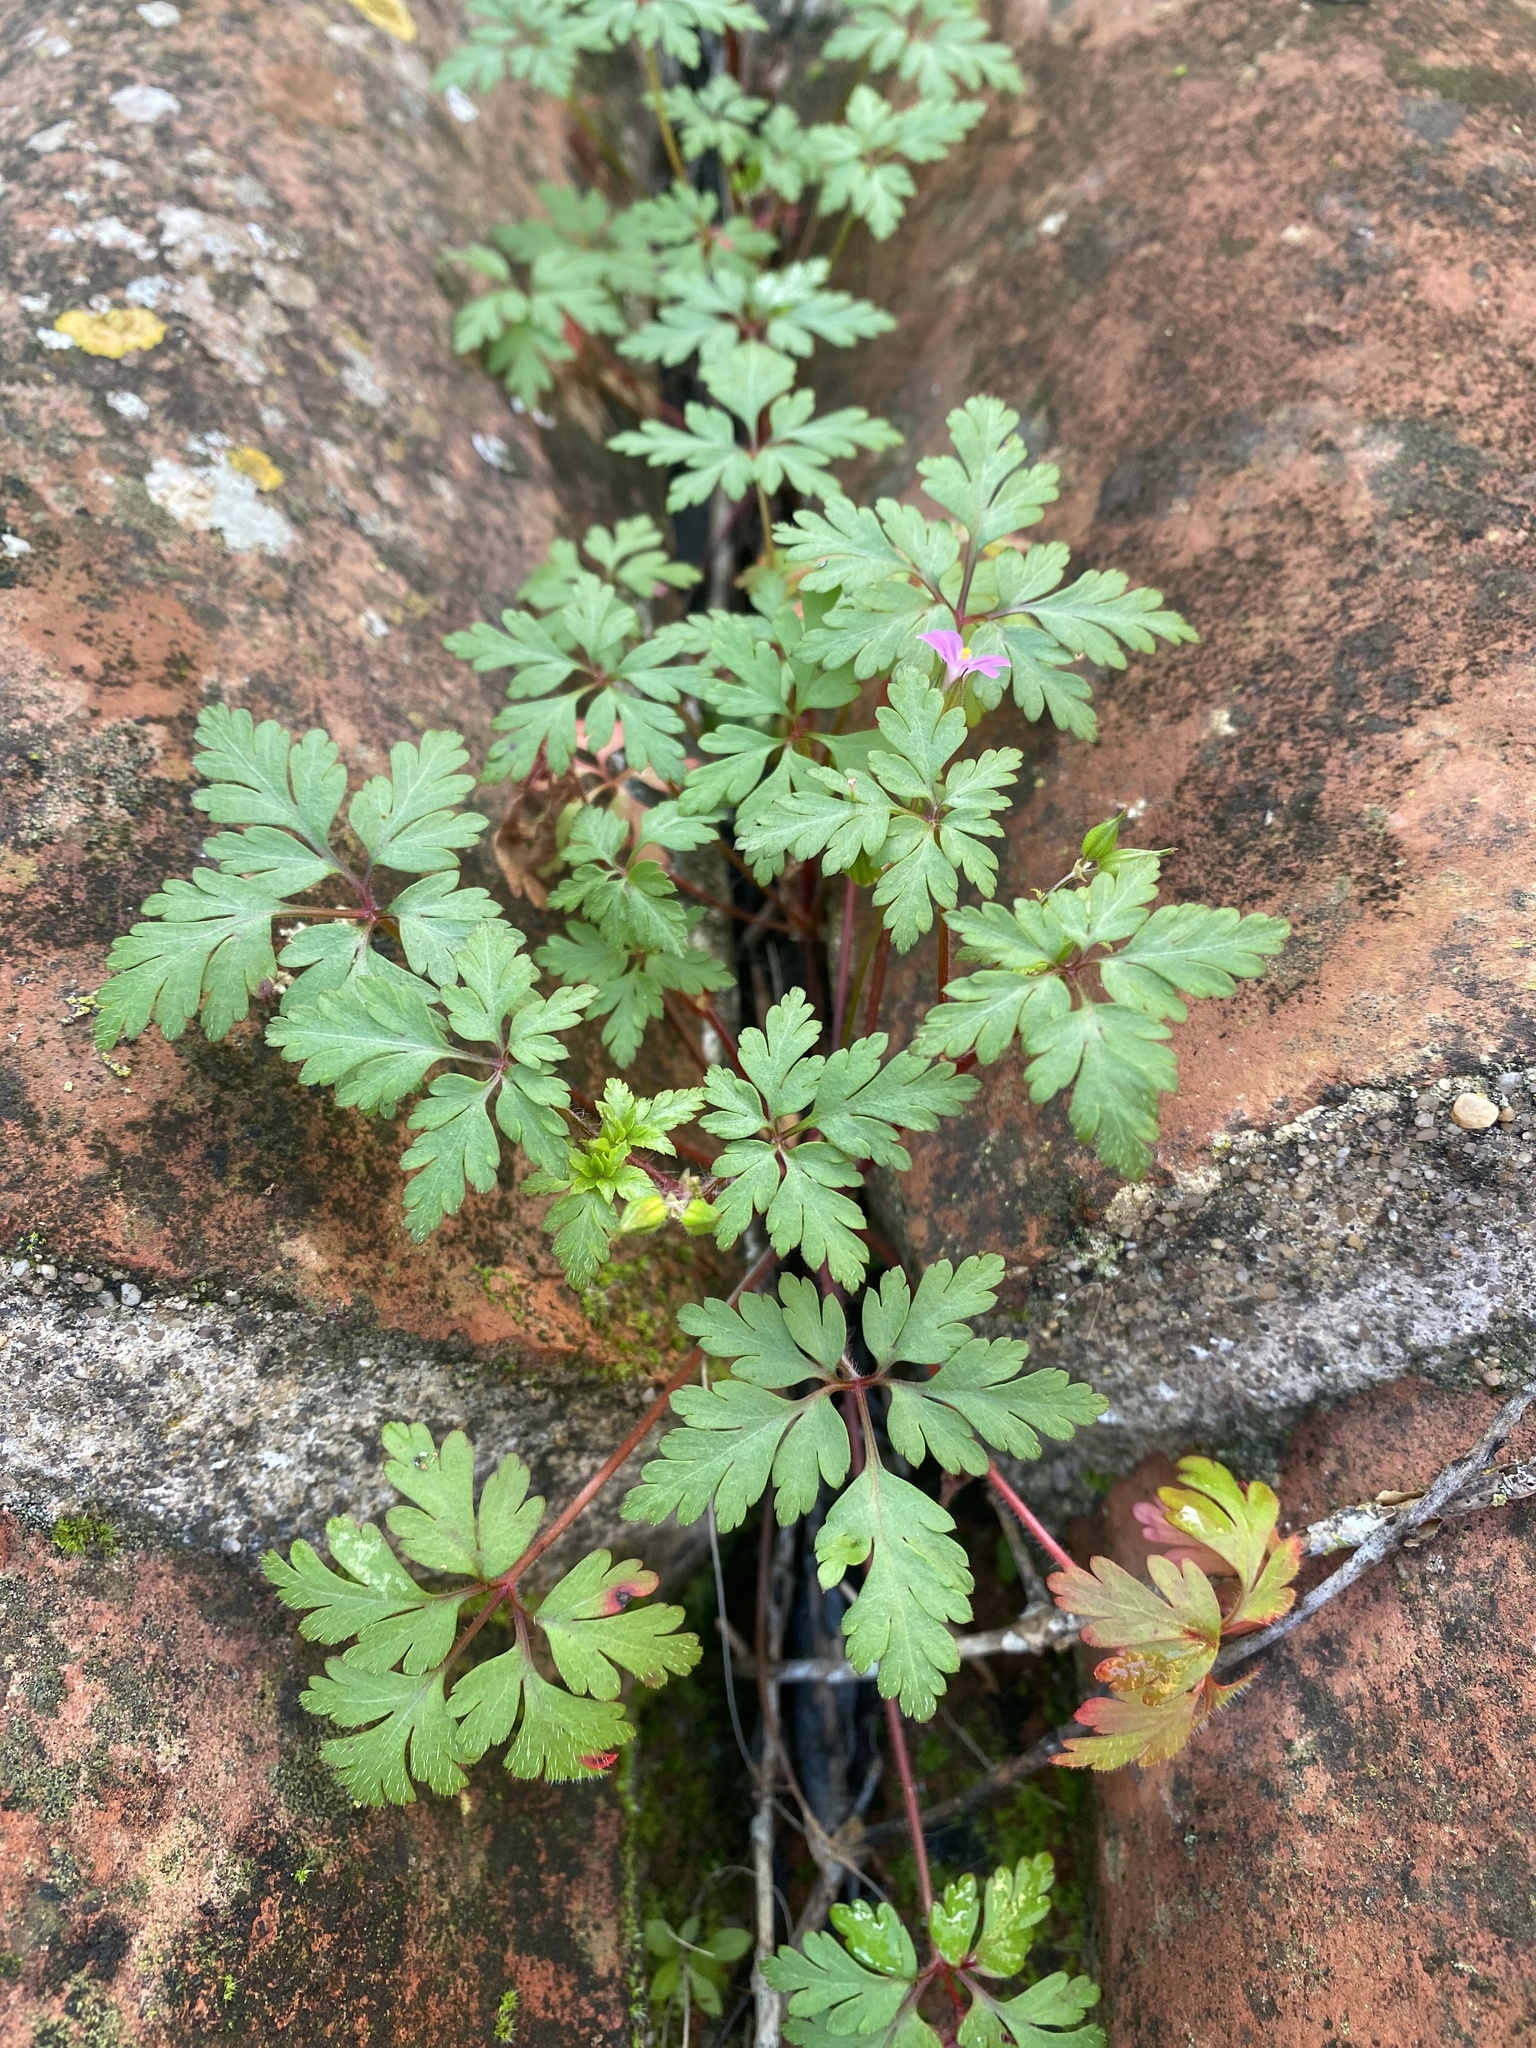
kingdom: Plantae
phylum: Tracheophyta
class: Magnoliopsida
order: Geraniales
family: Geraniaceae
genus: Geranium
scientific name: Geranium purpureum
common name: Little-robin
